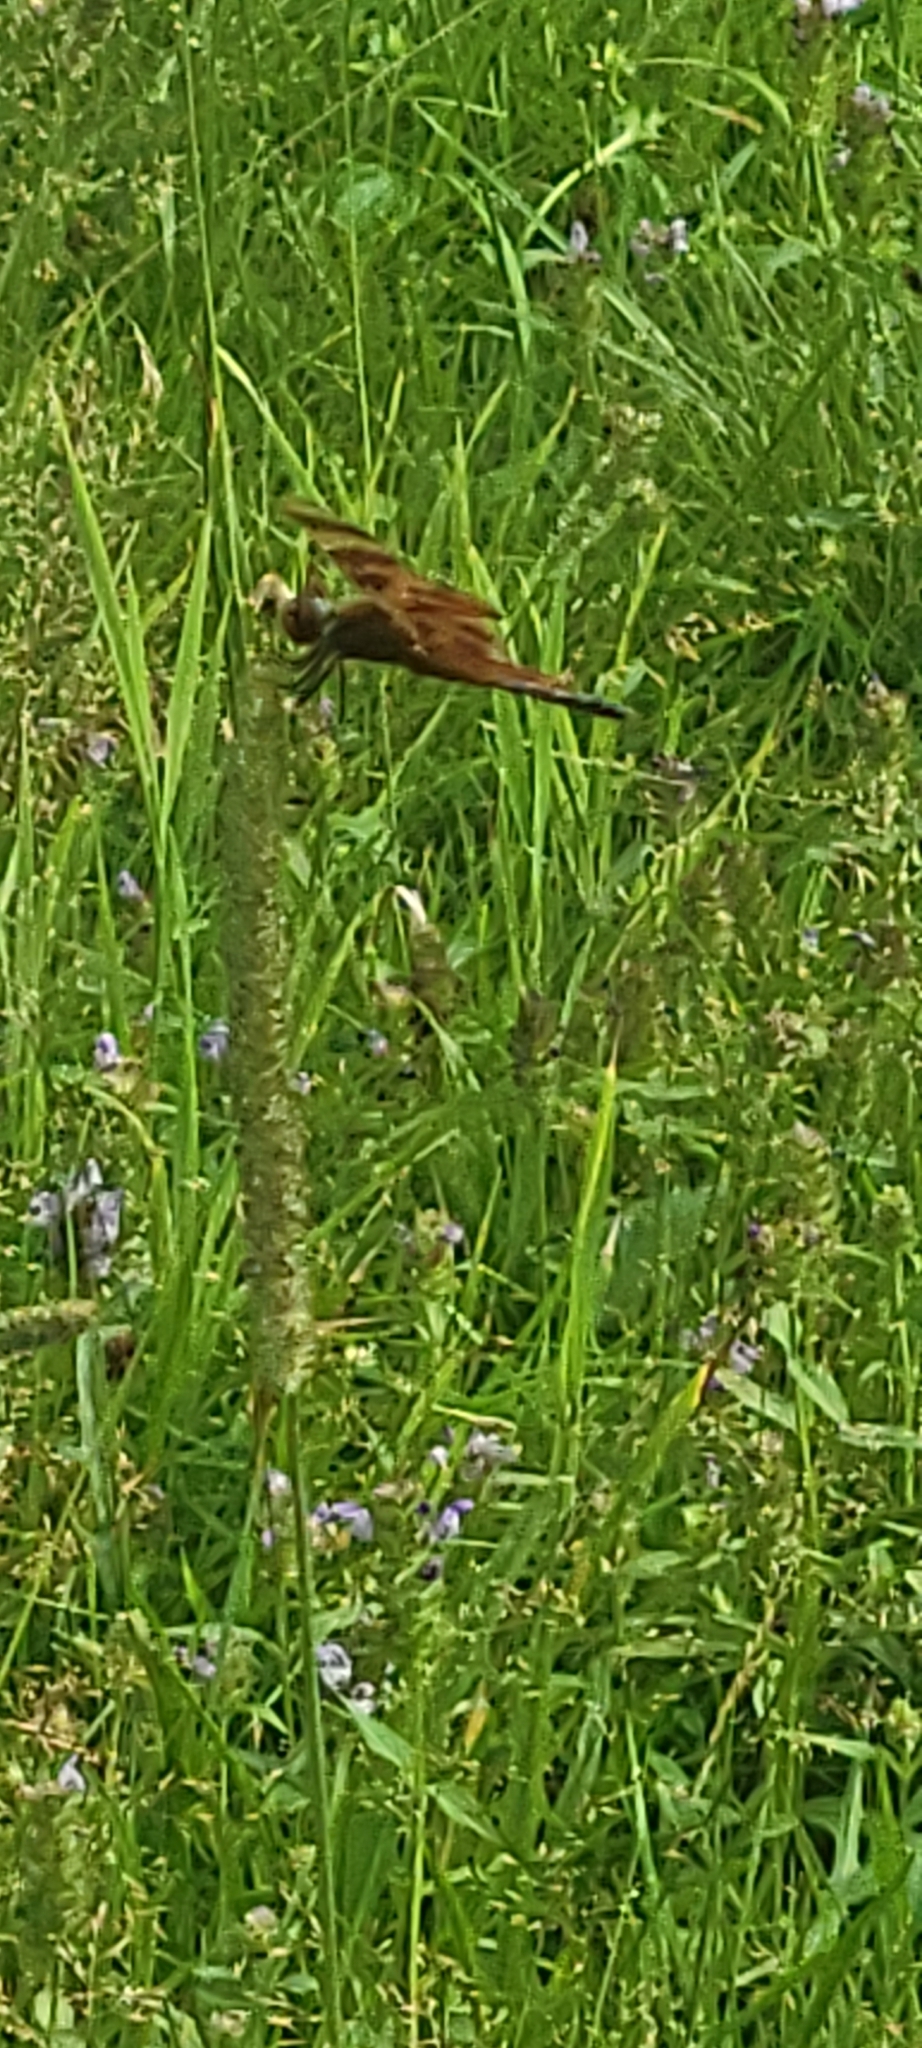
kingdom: Animalia
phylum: Arthropoda
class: Insecta
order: Odonata
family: Libellulidae
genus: Celithemis
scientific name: Celithemis eponina
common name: Halloween pennant
